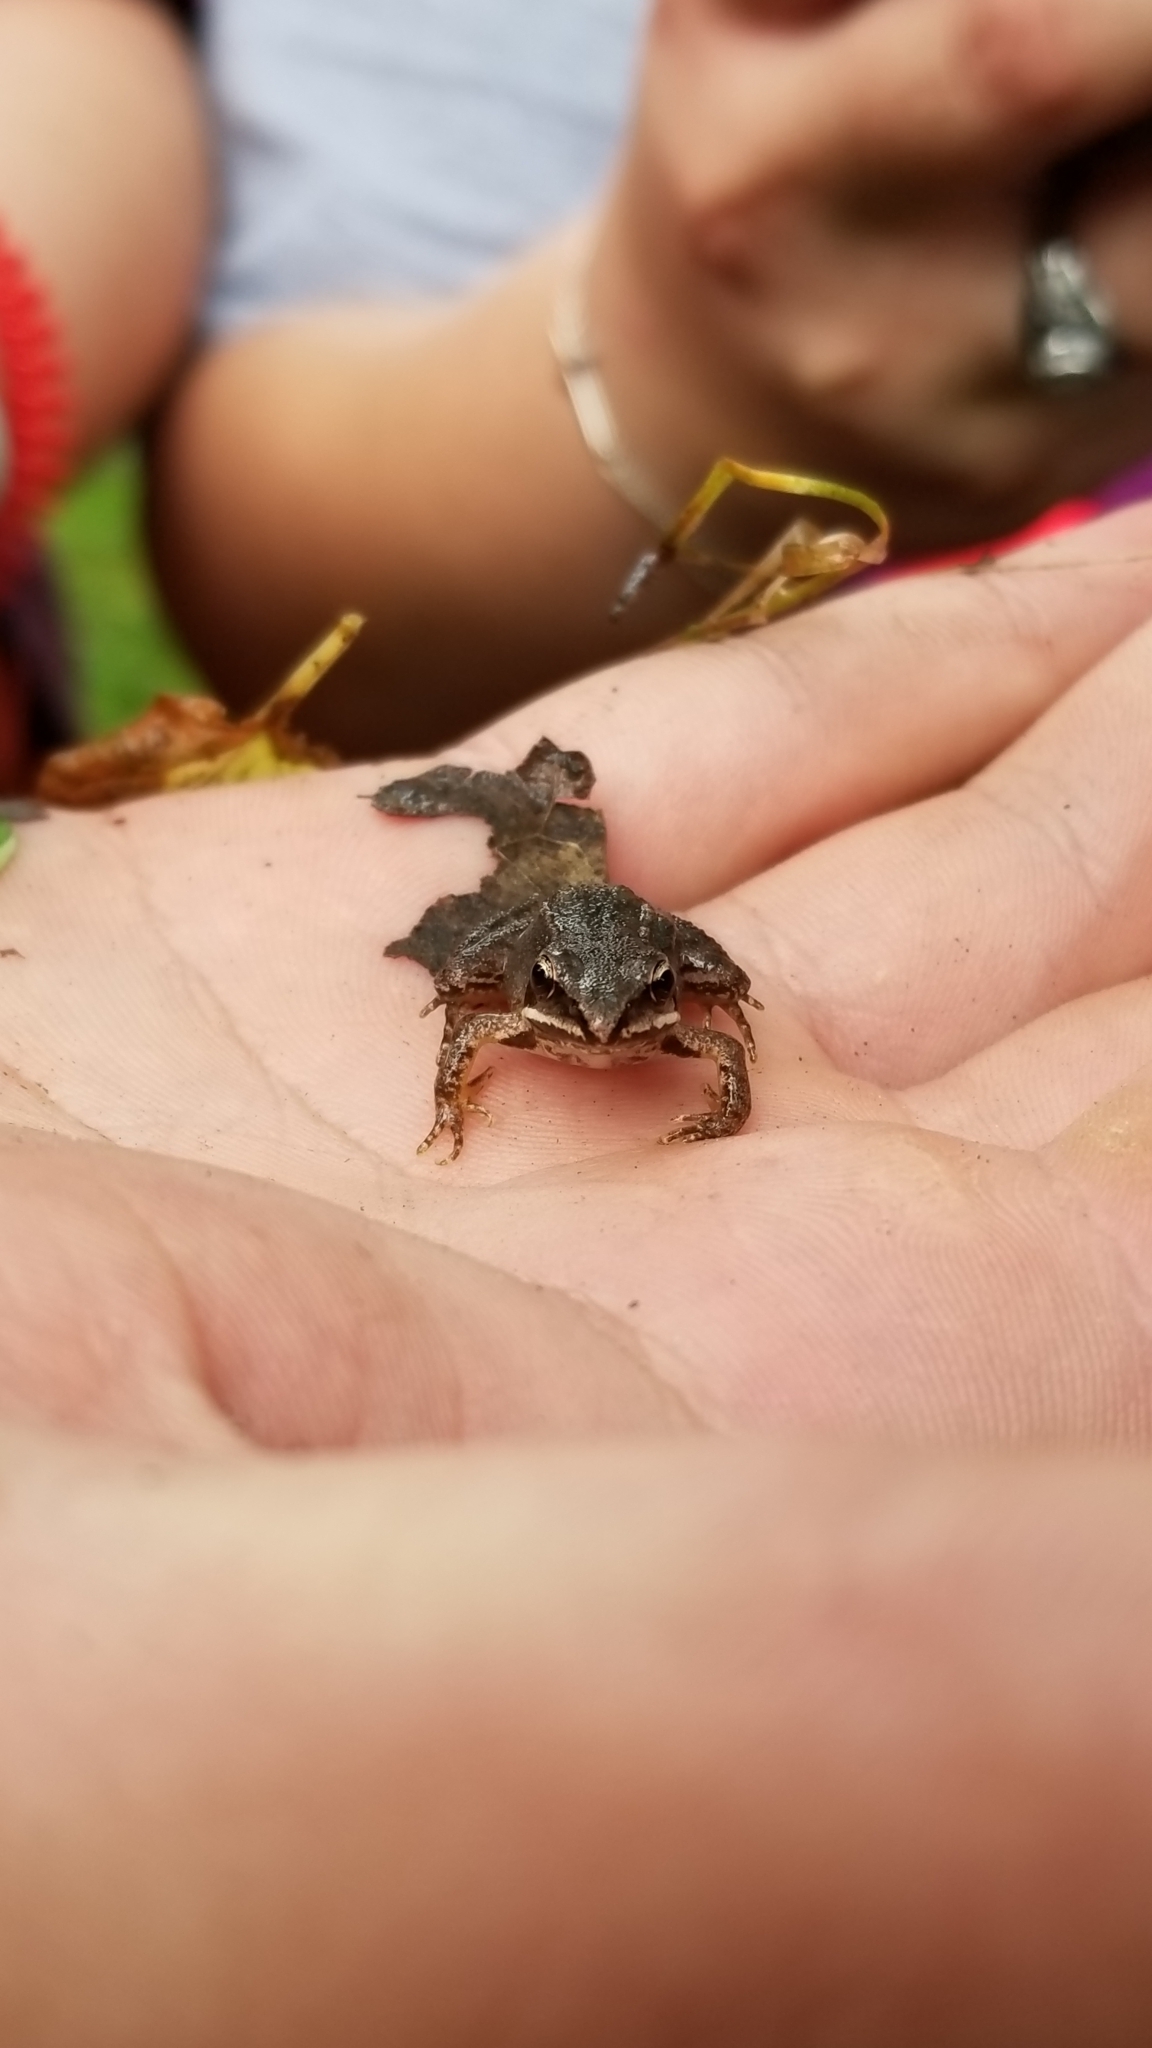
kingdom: Animalia
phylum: Chordata
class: Amphibia
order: Anura
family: Ranidae
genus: Lithobates
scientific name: Lithobates sylvaticus
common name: Wood frog
